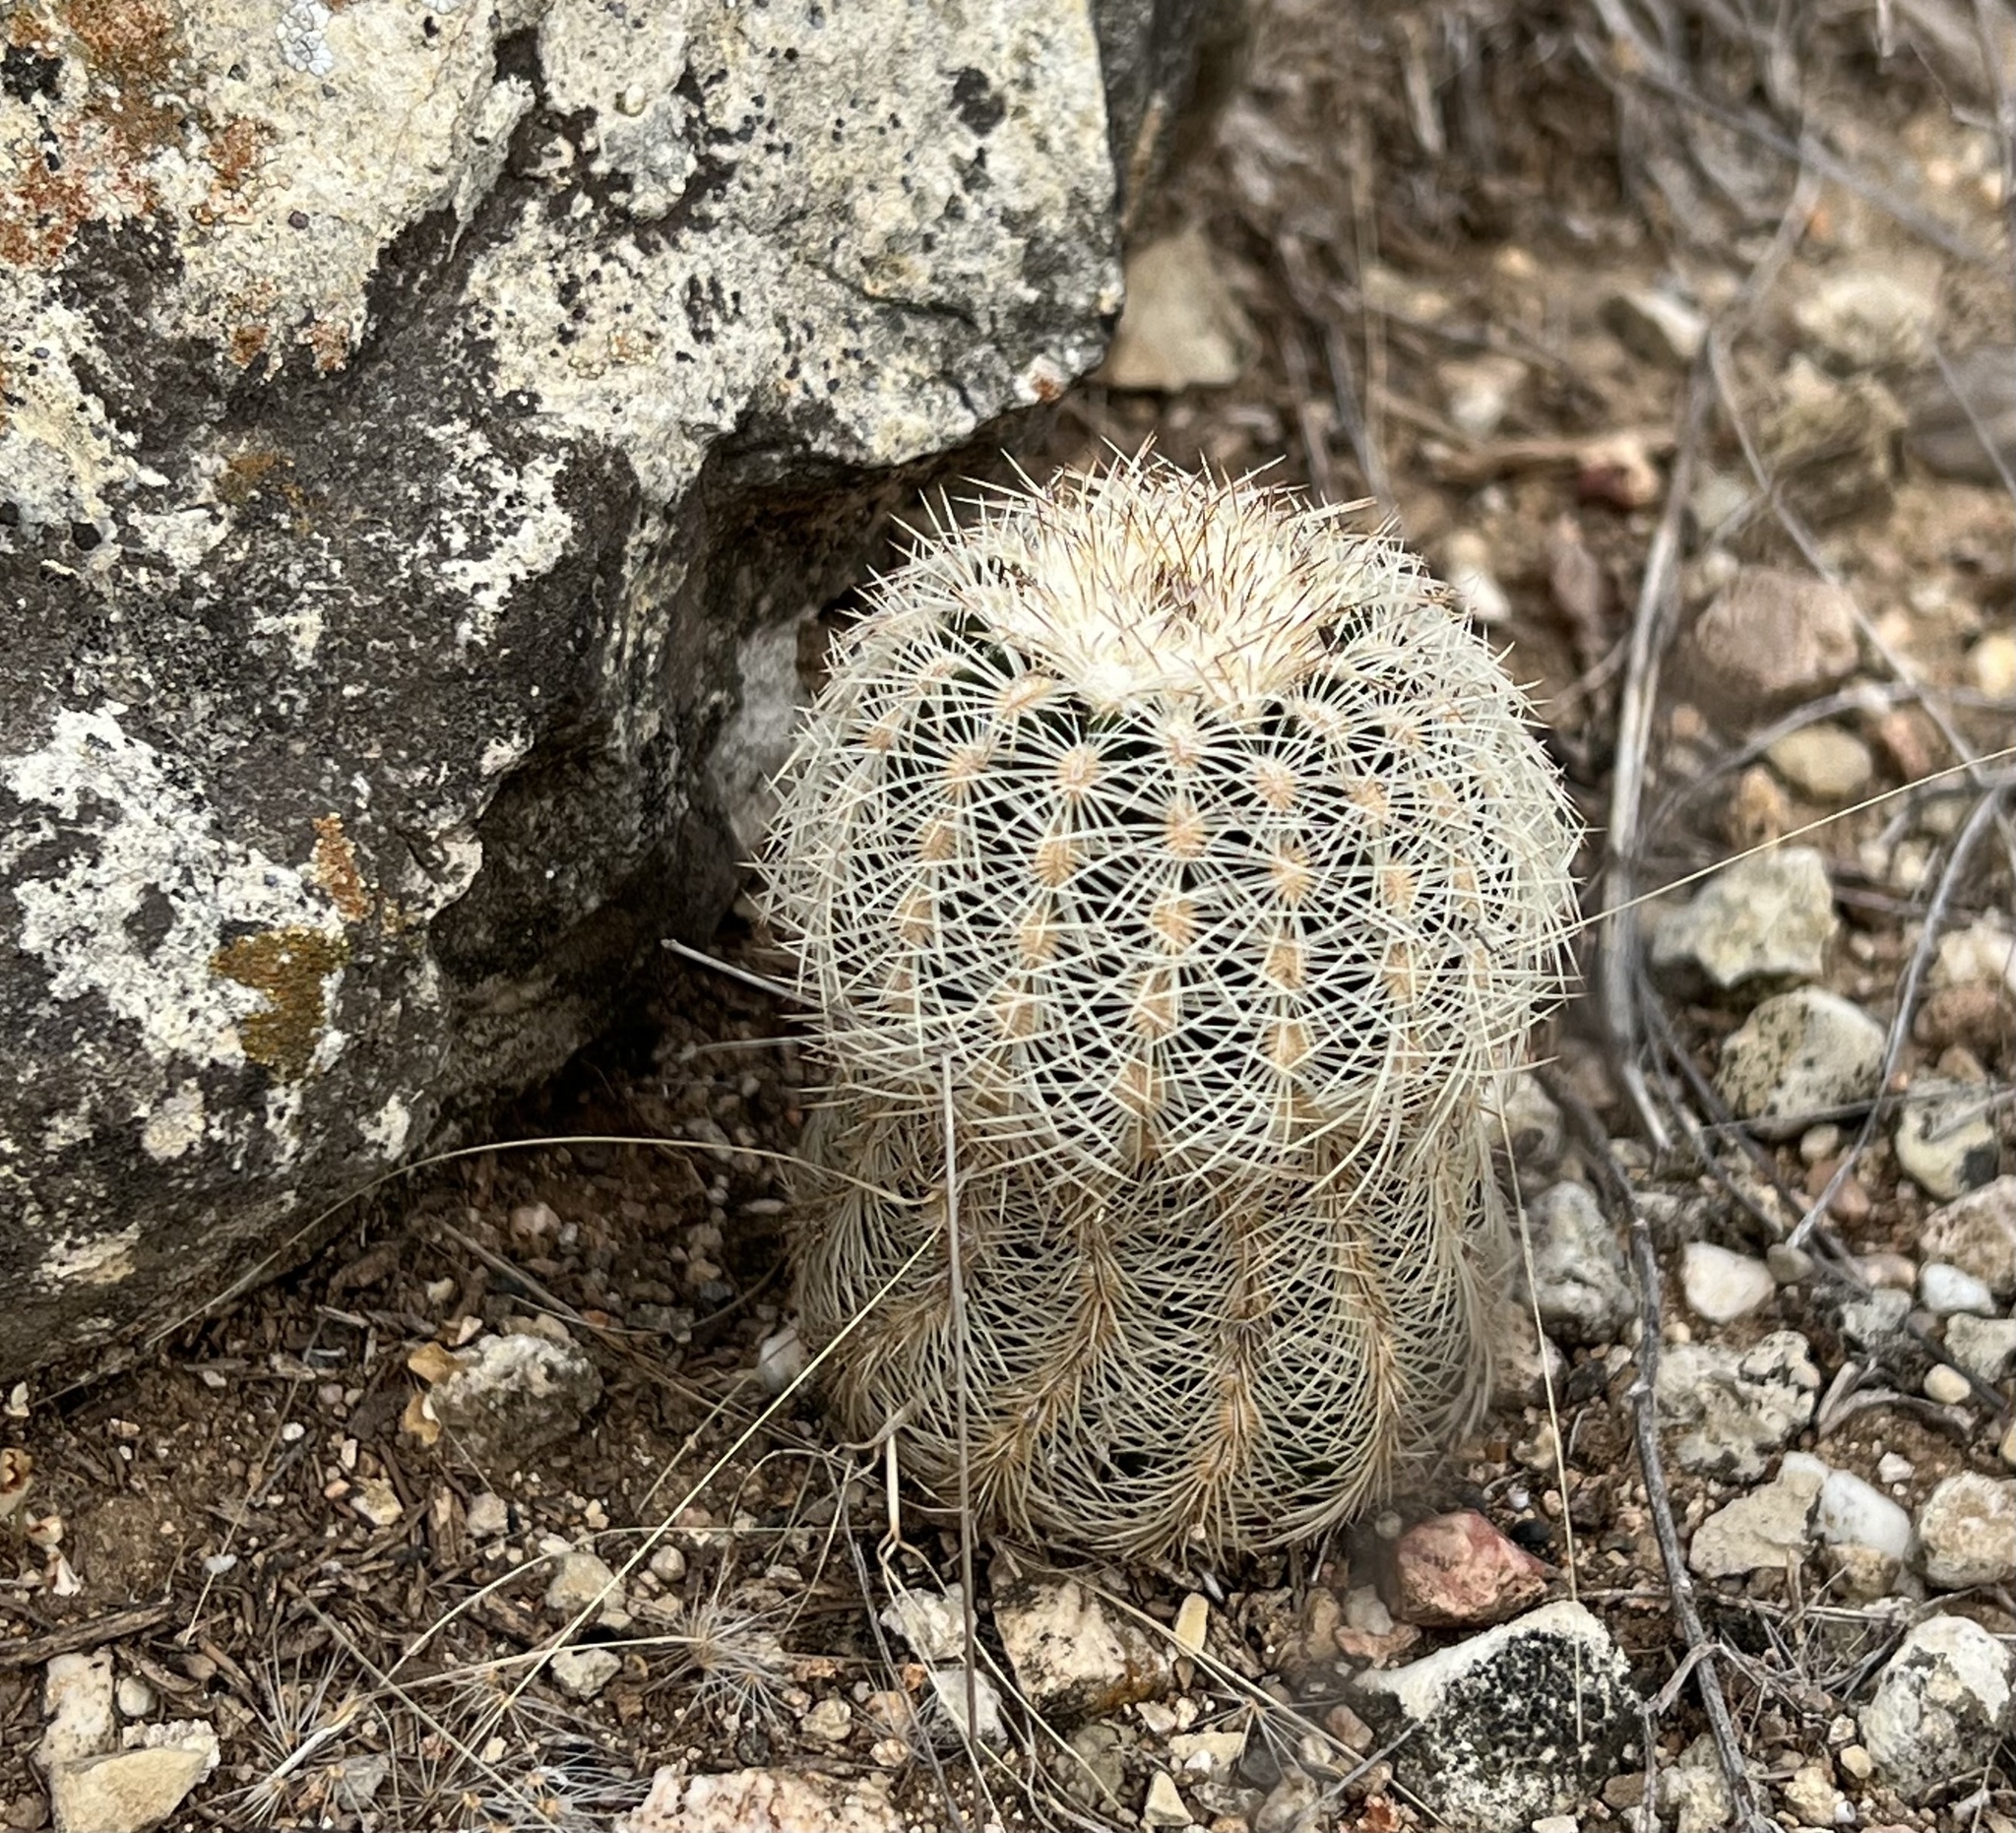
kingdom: Plantae
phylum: Tracheophyta
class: Magnoliopsida
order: Caryophyllales
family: Cactaceae
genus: Echinocereus
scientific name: Echinocereus reichenbachii
